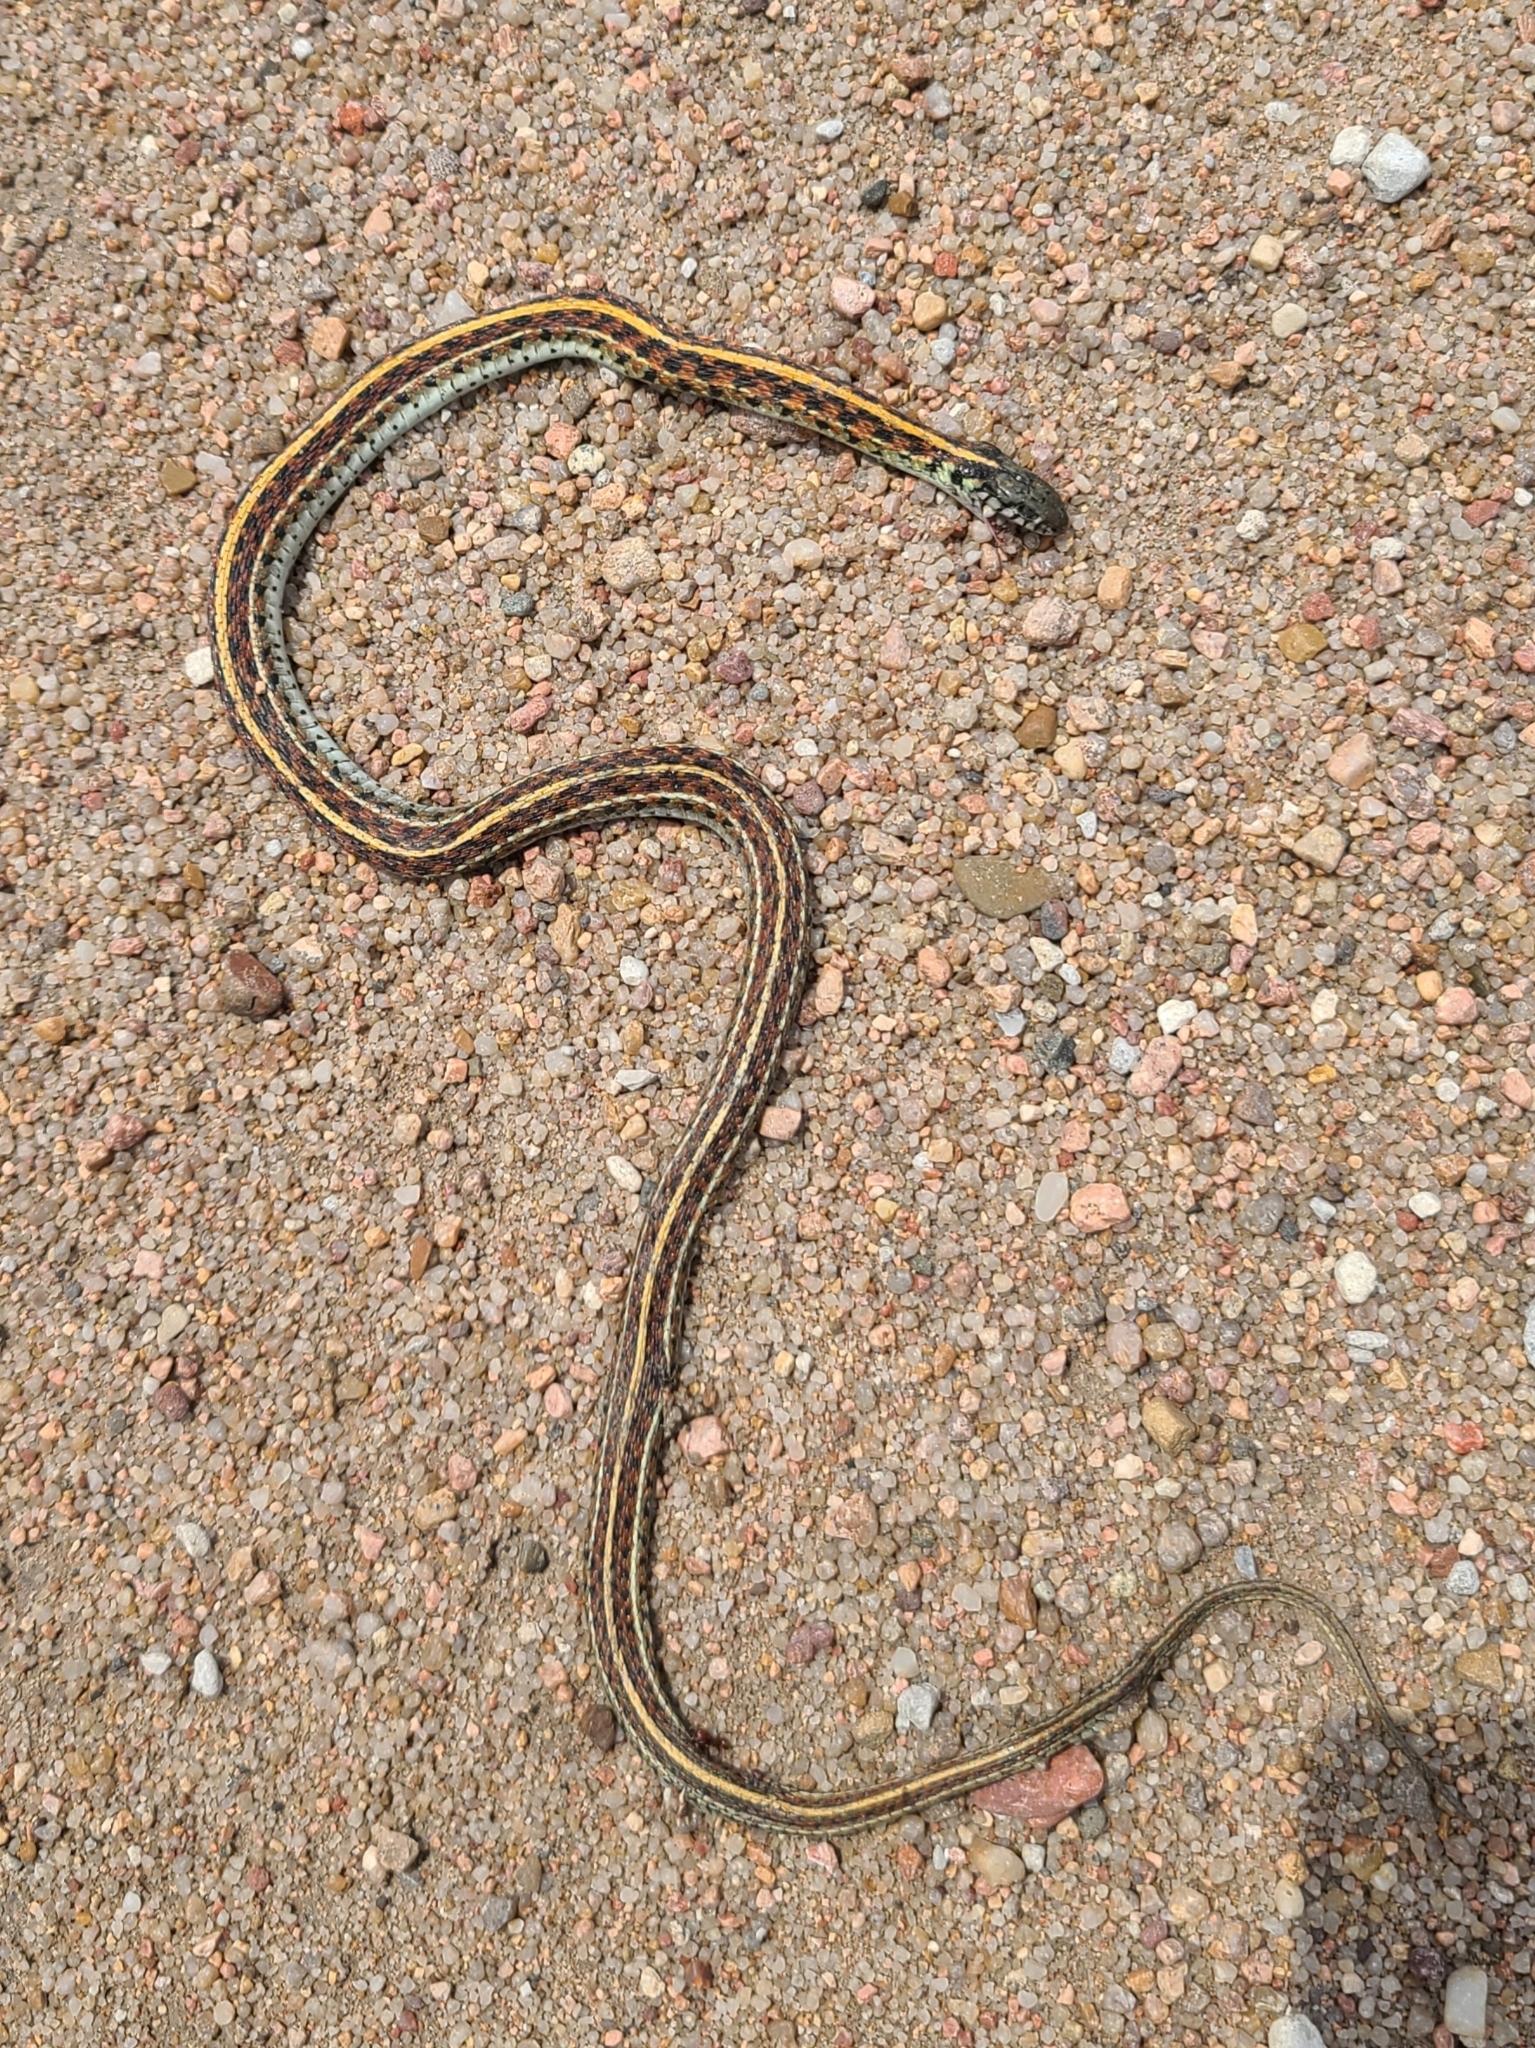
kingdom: Animalia
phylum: Chordata
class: Squamata
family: Colubridae
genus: Thamnophis
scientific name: Thamnophis radix
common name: Plains garter snake
